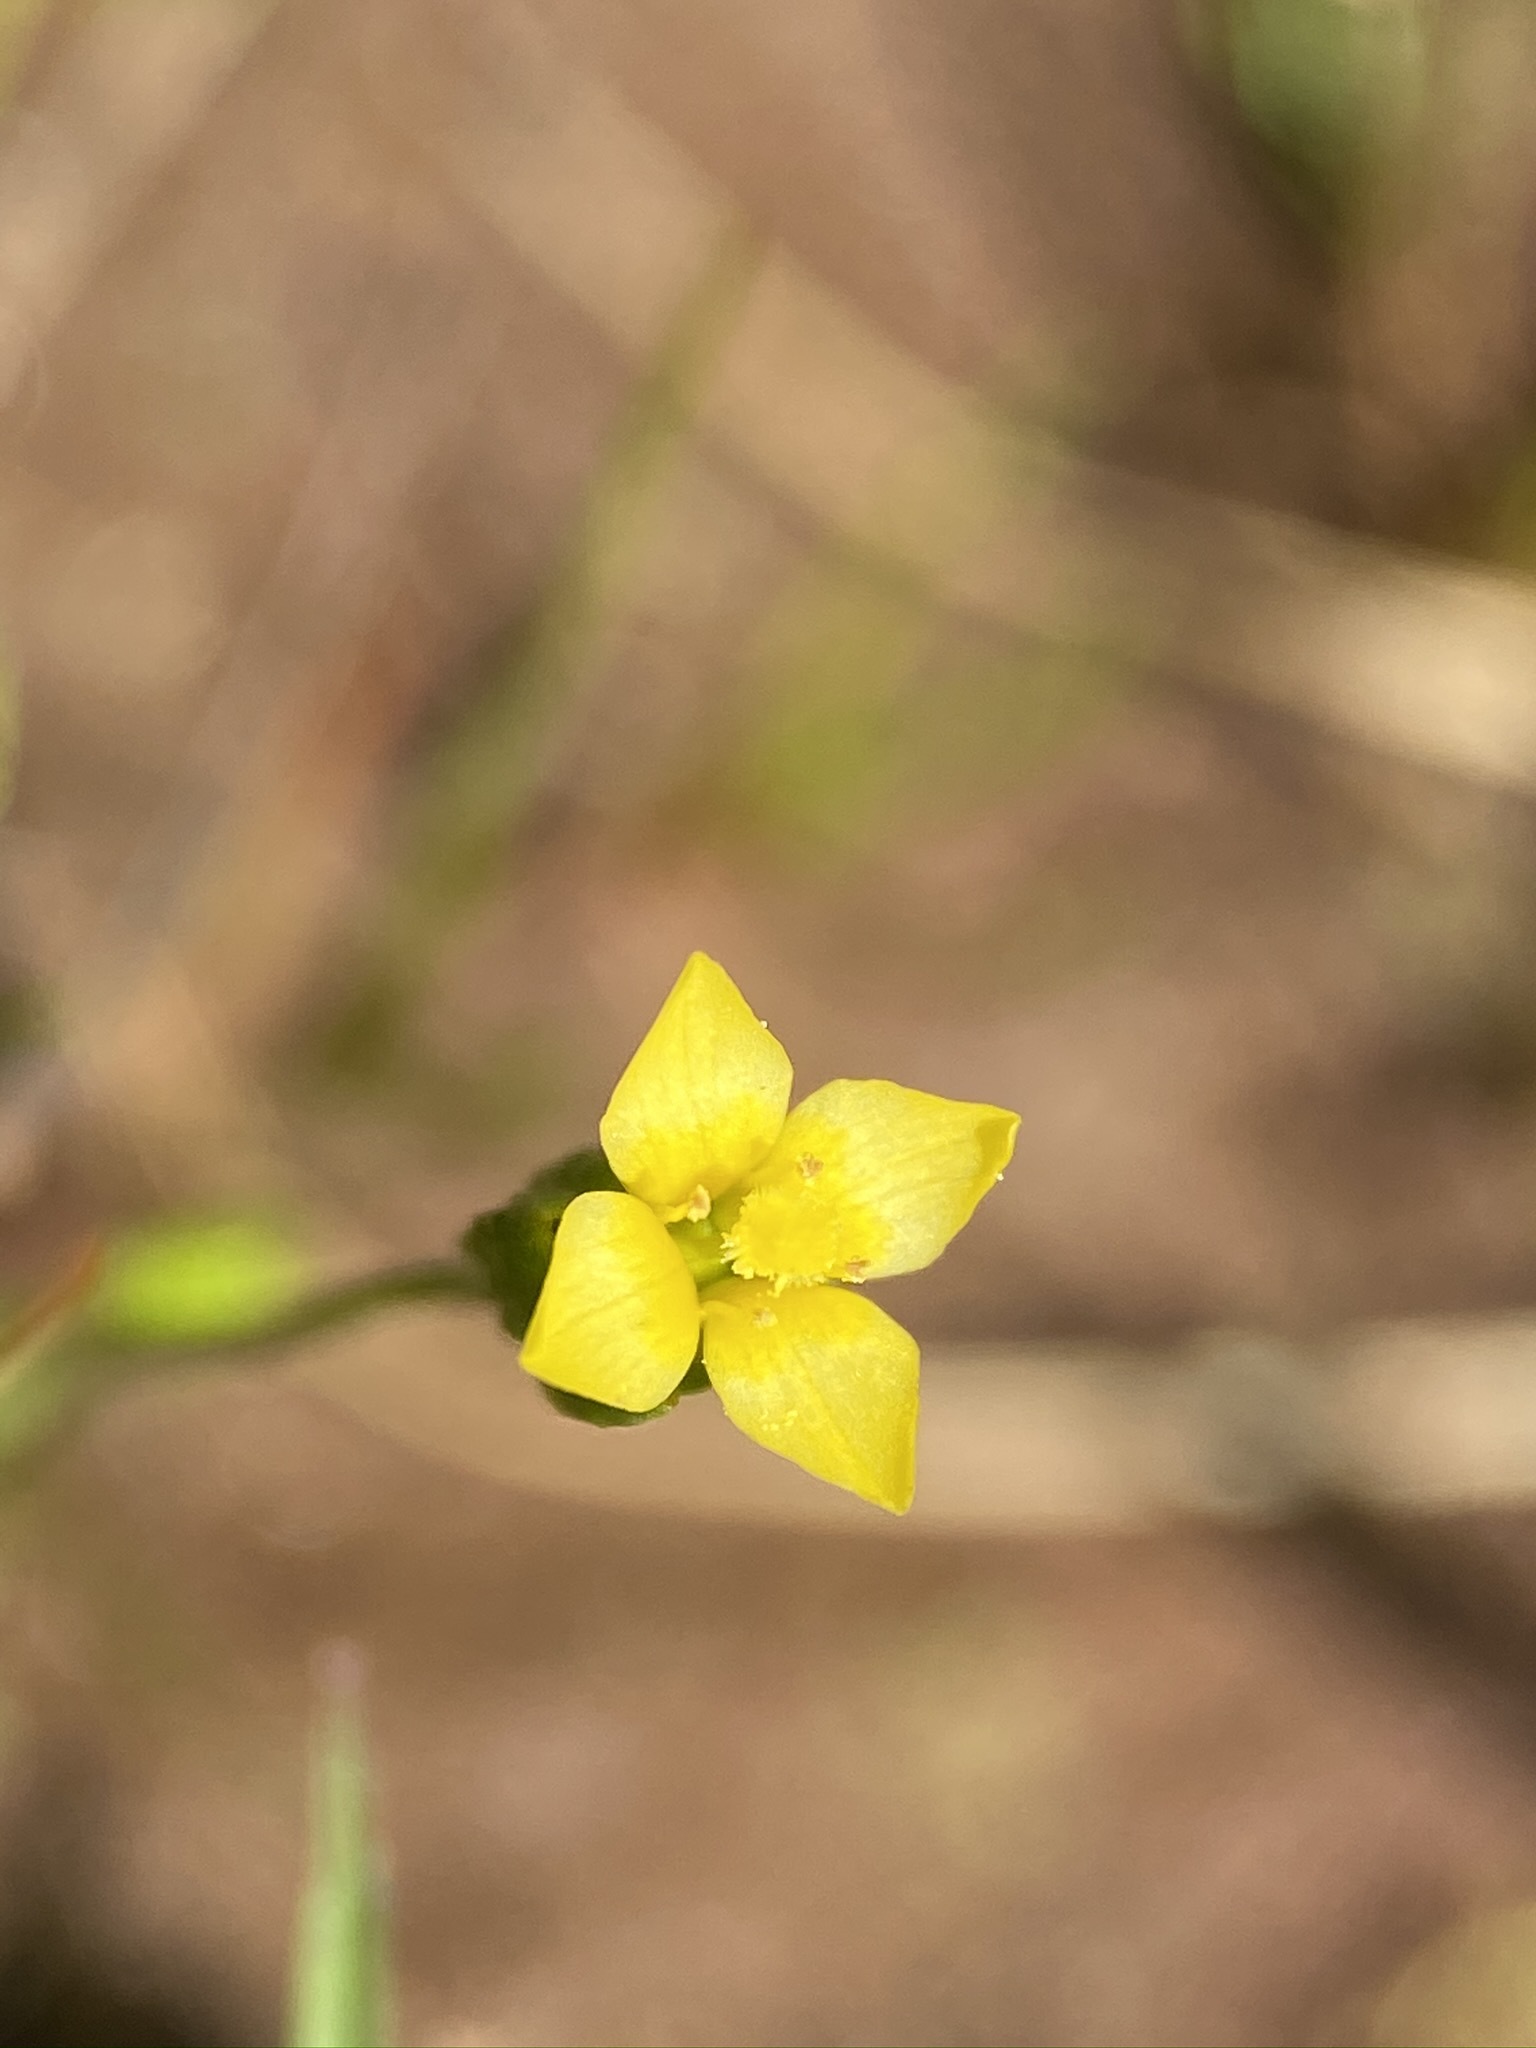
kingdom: Plantae
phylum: Tracheophyta
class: Magnoliopsida
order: Gentianales
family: Gentianaceae
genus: Microcala
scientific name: Microcala quadrangularis
